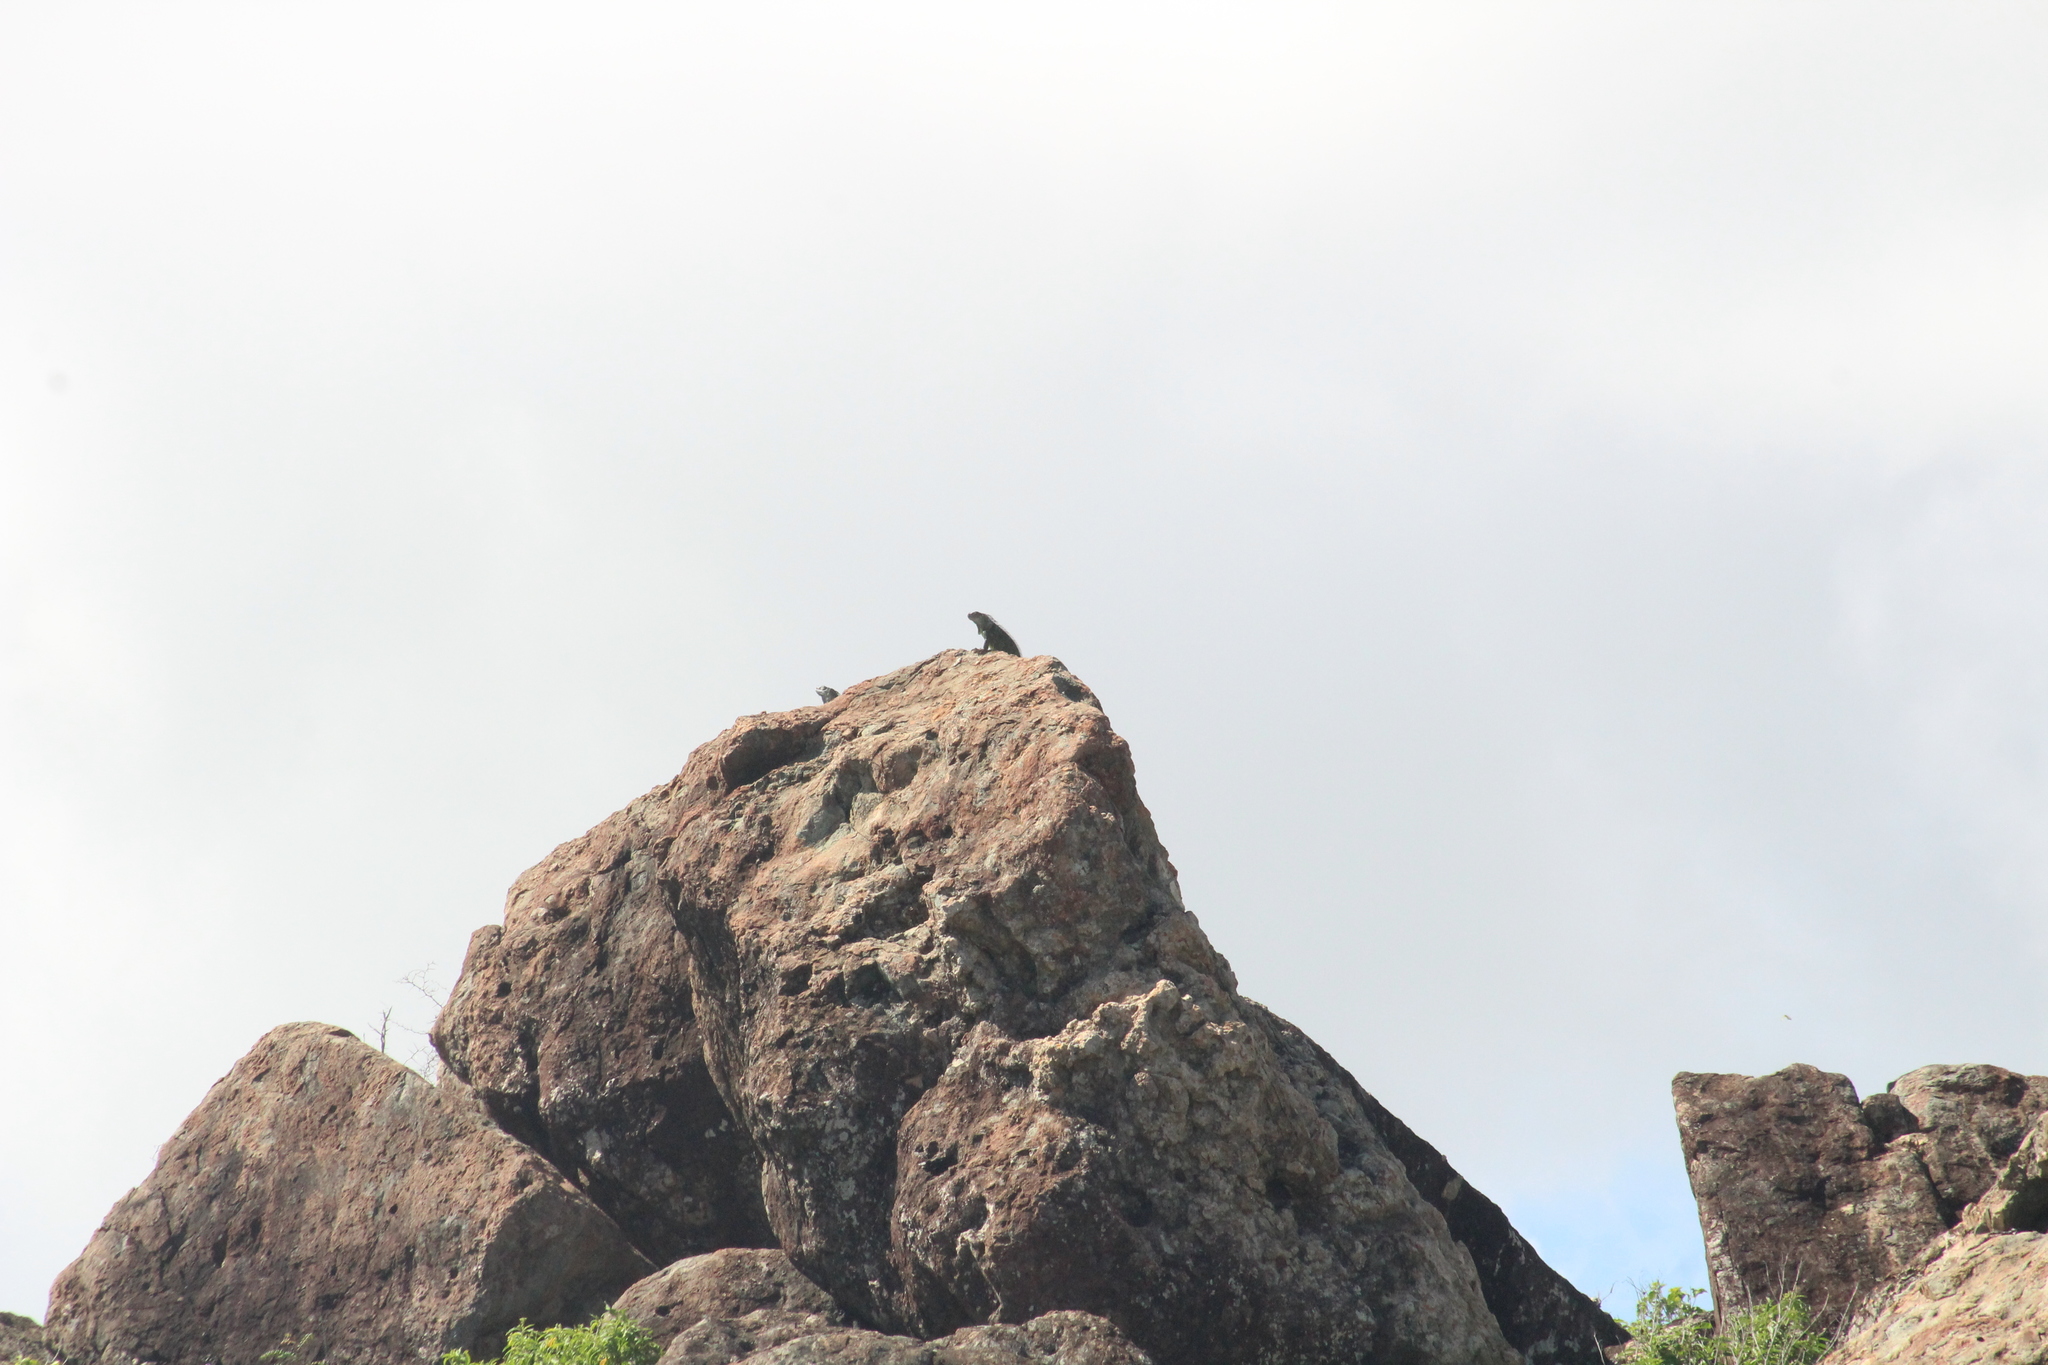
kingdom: Animalia
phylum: Chordata
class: Squamata
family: Iguanidae
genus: Iguana
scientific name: Iguana iguana
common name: Green iguana
